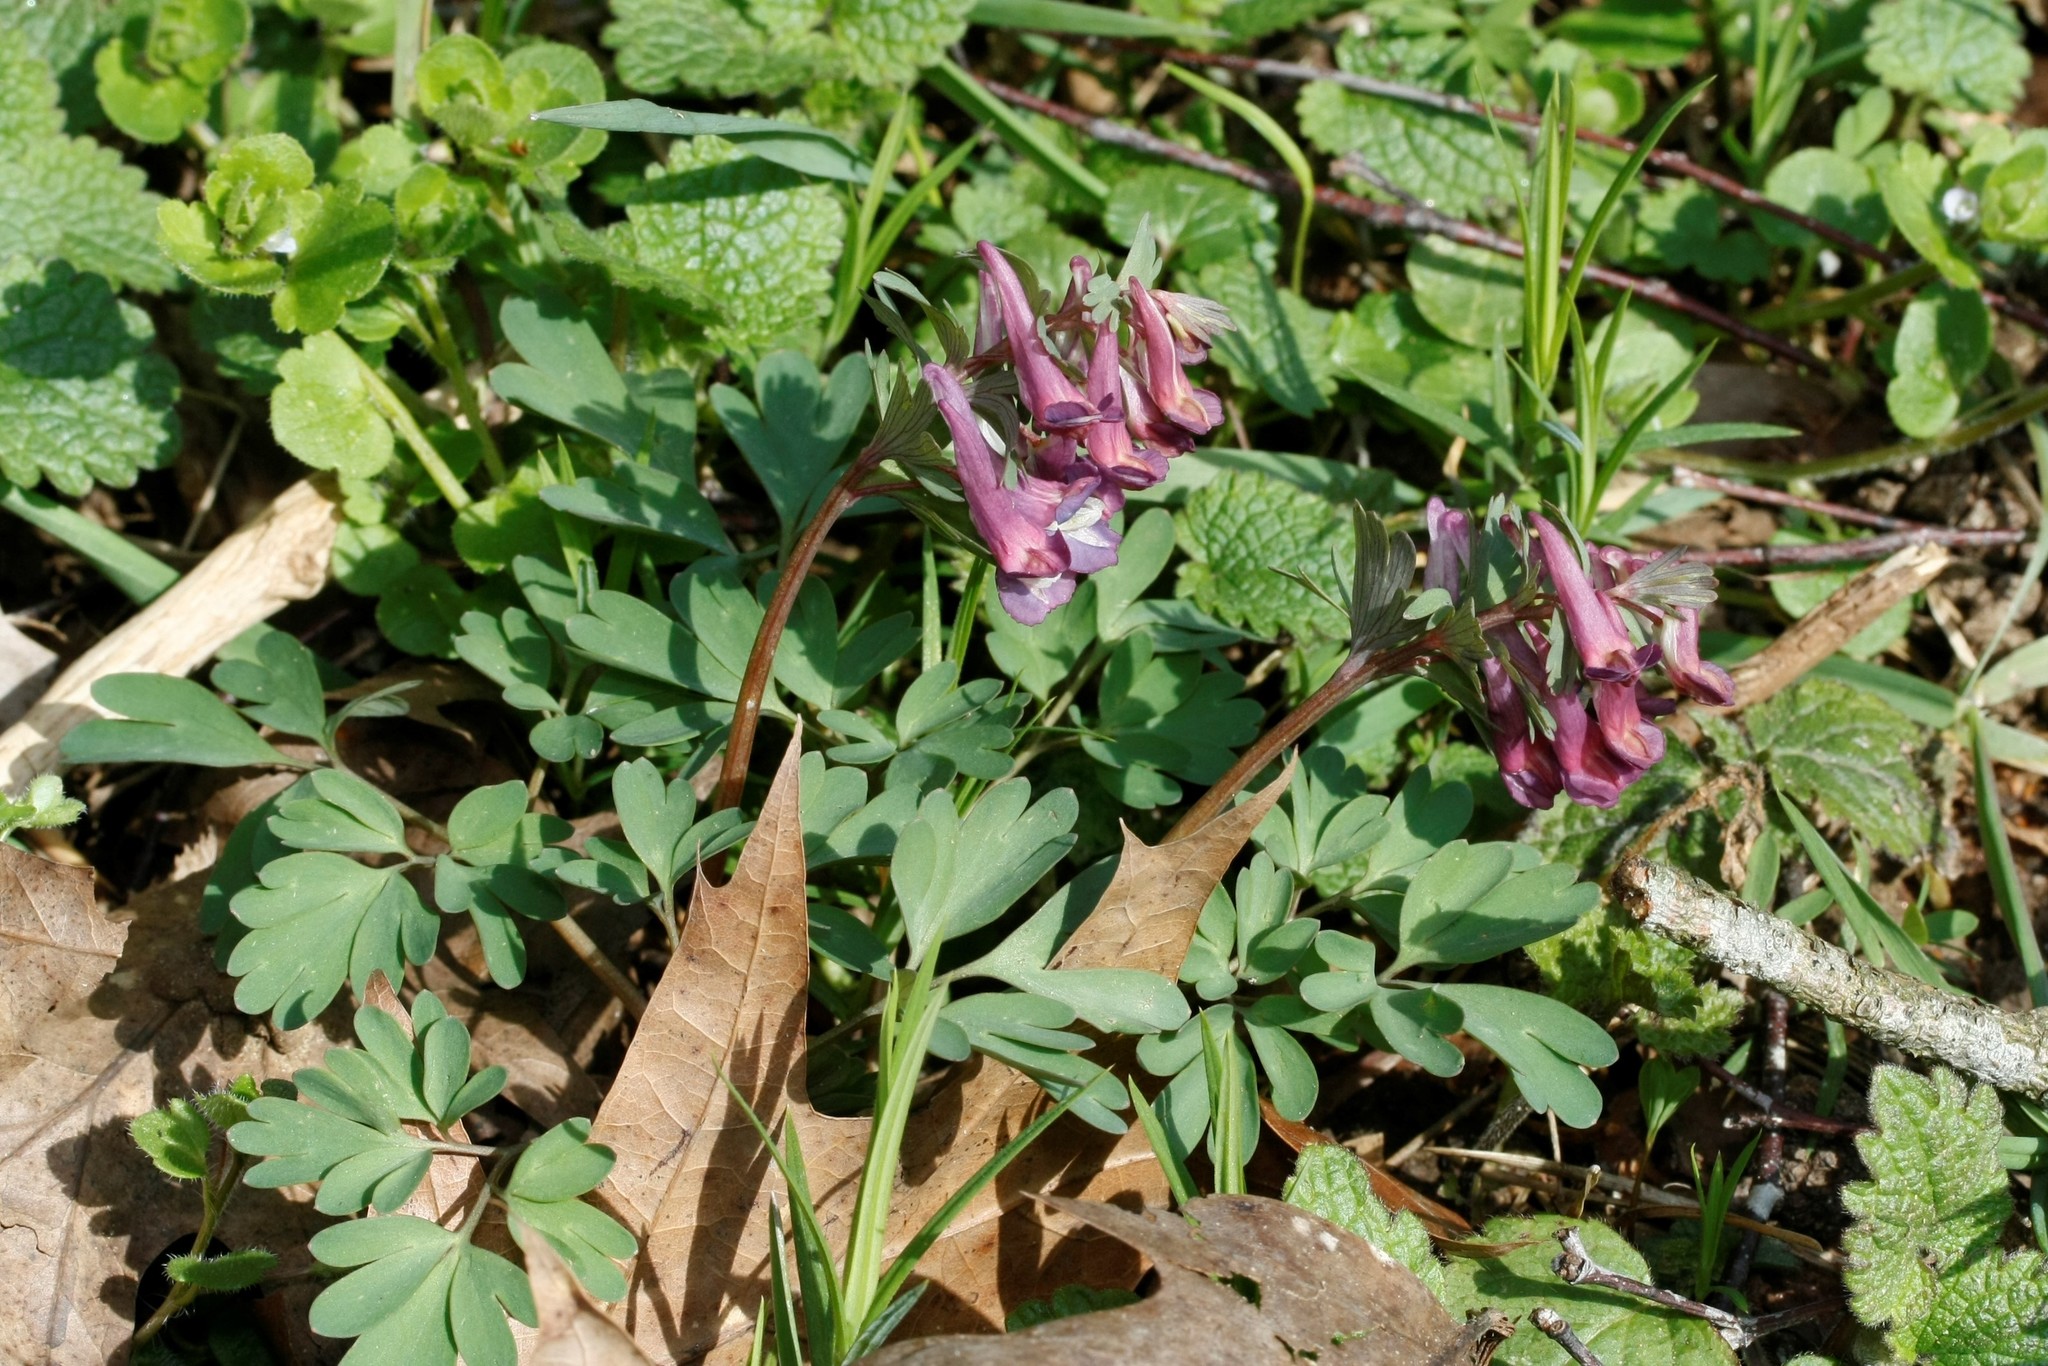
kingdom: Plantae
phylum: Tracheophyta
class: Magnoliopsida
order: Ranunculales
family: Papaveraceae
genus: Corydalis
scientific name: Corydalis solida
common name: Bird-in-a-bush
